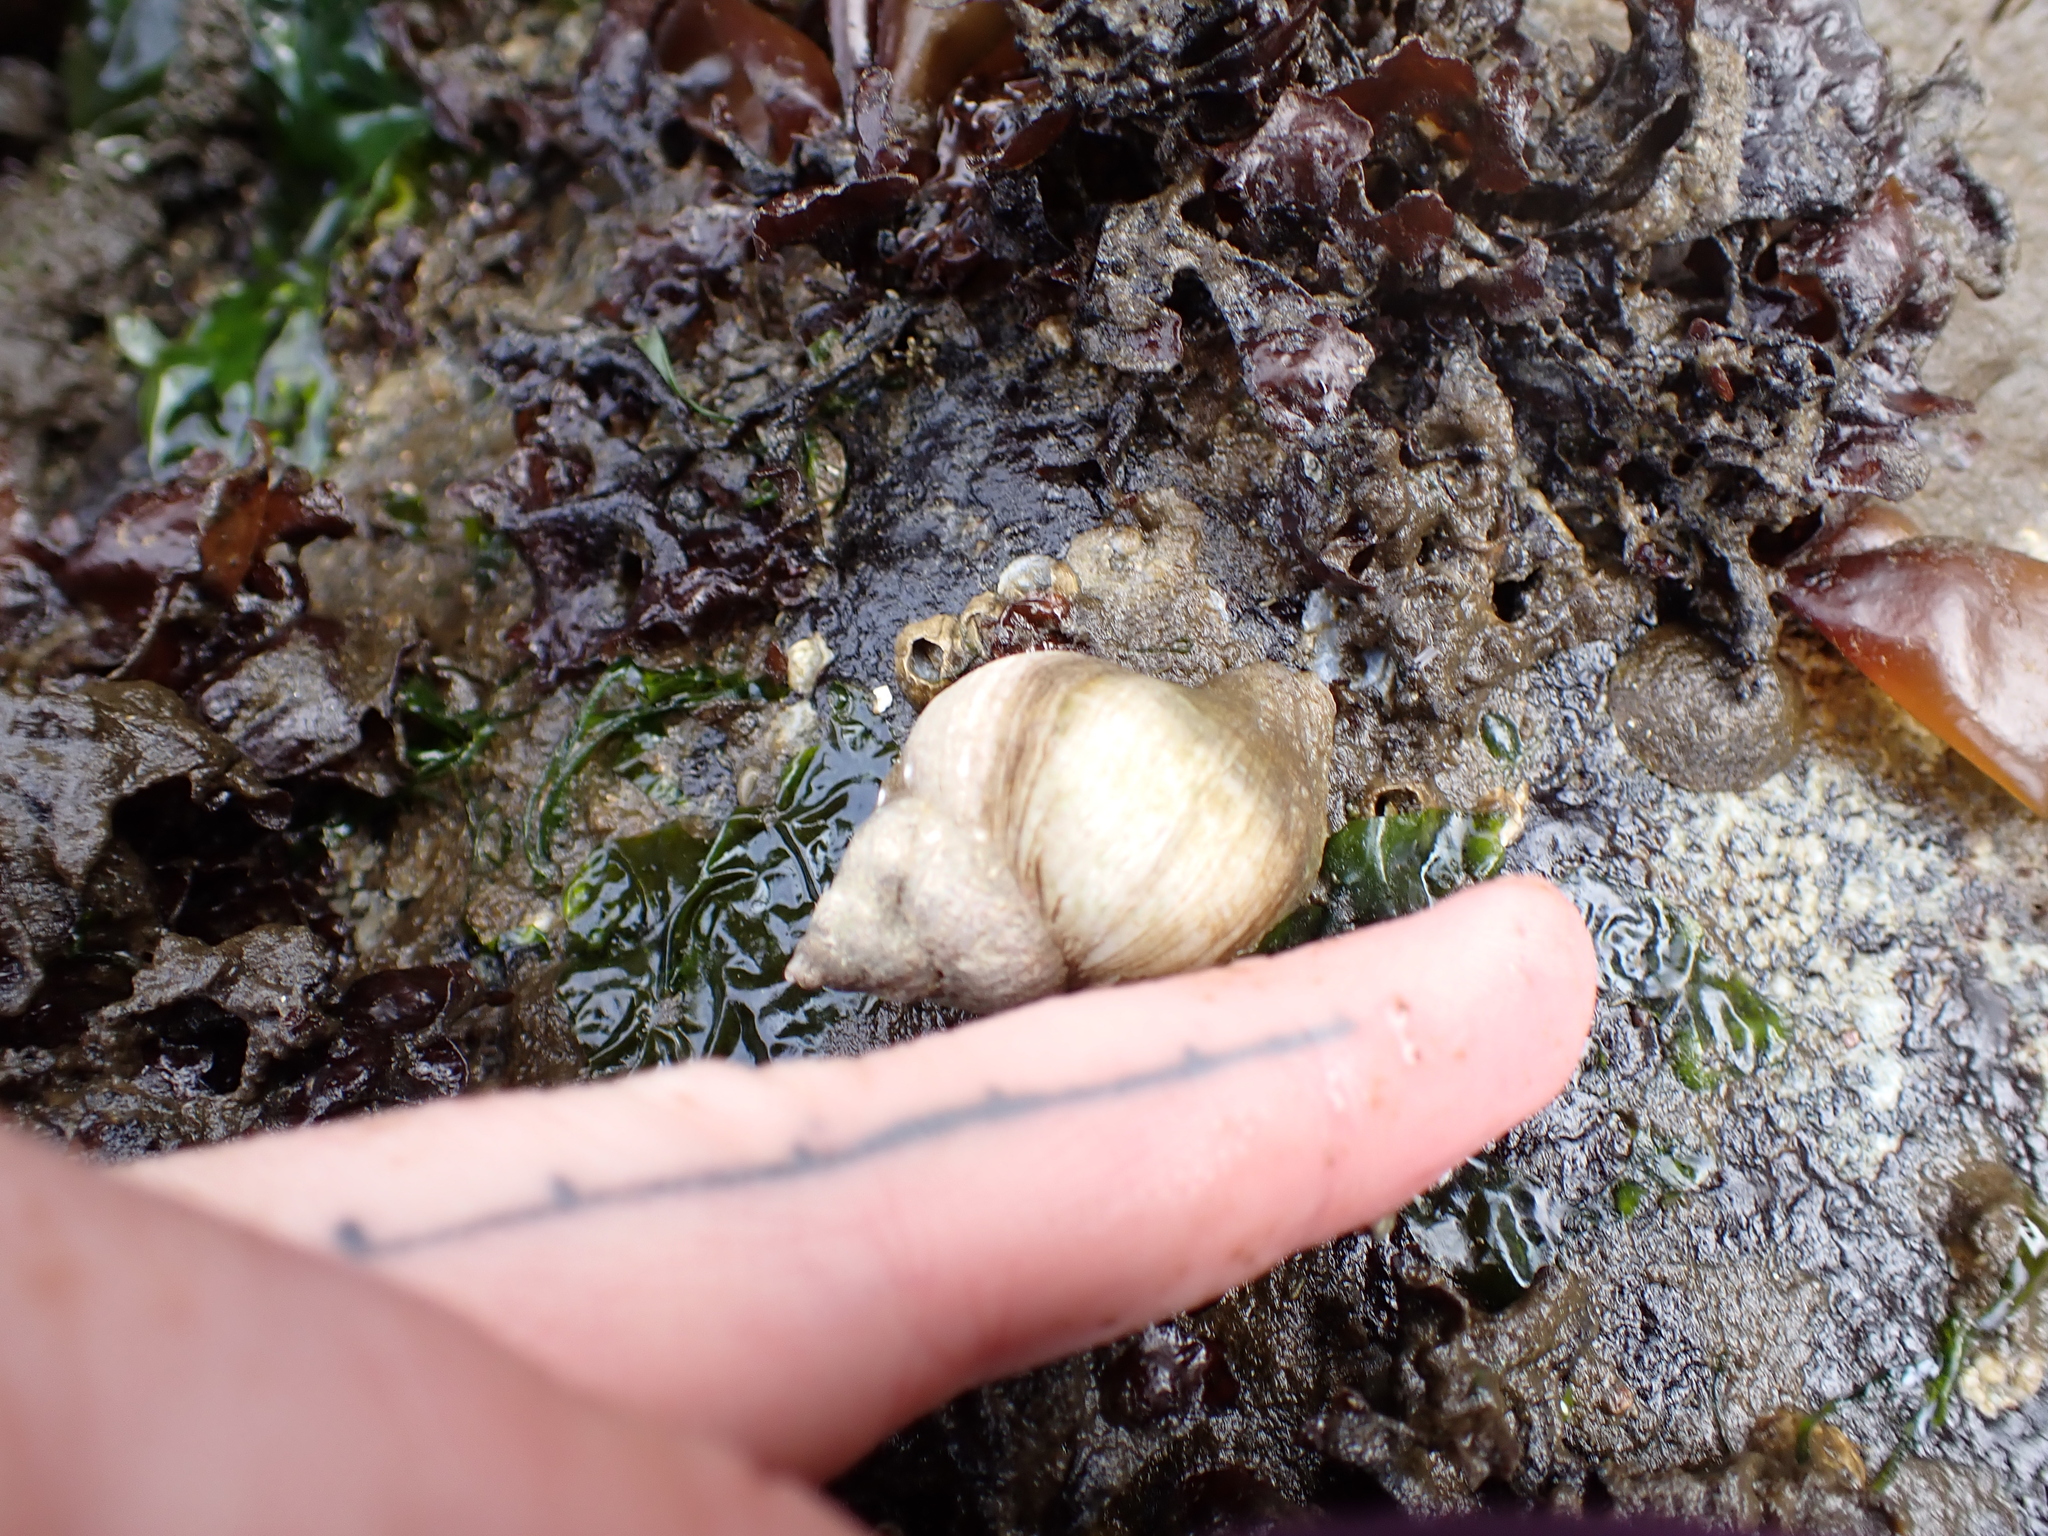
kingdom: Animalia
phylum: Mollusca
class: Gastropoda
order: Neogastropoda
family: Muricidae
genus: Nucella
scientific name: Nucella lamellosa
